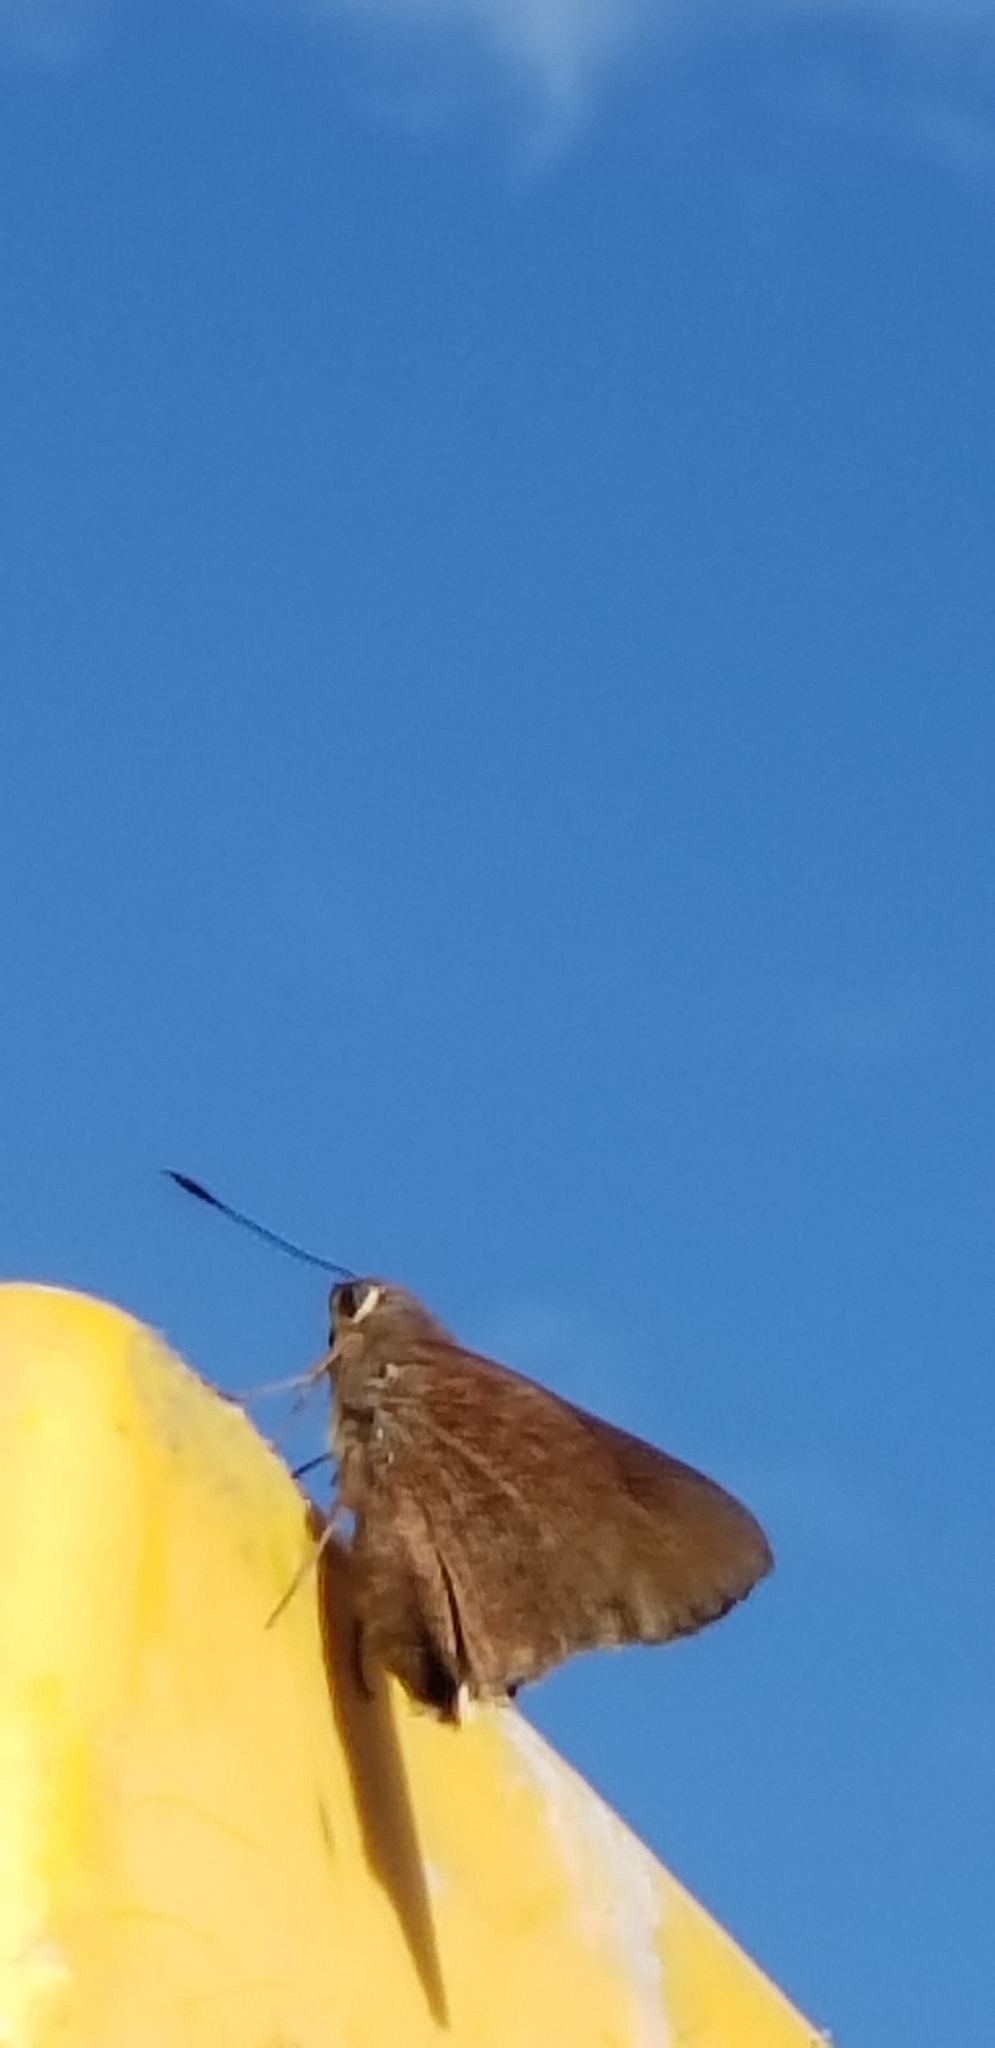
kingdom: Animalia
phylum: Arthropoda
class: Insecta
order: Lepidoptera
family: Hesperiidae
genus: Asbolis
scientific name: Asbolis capucinus
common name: Monk skipper
